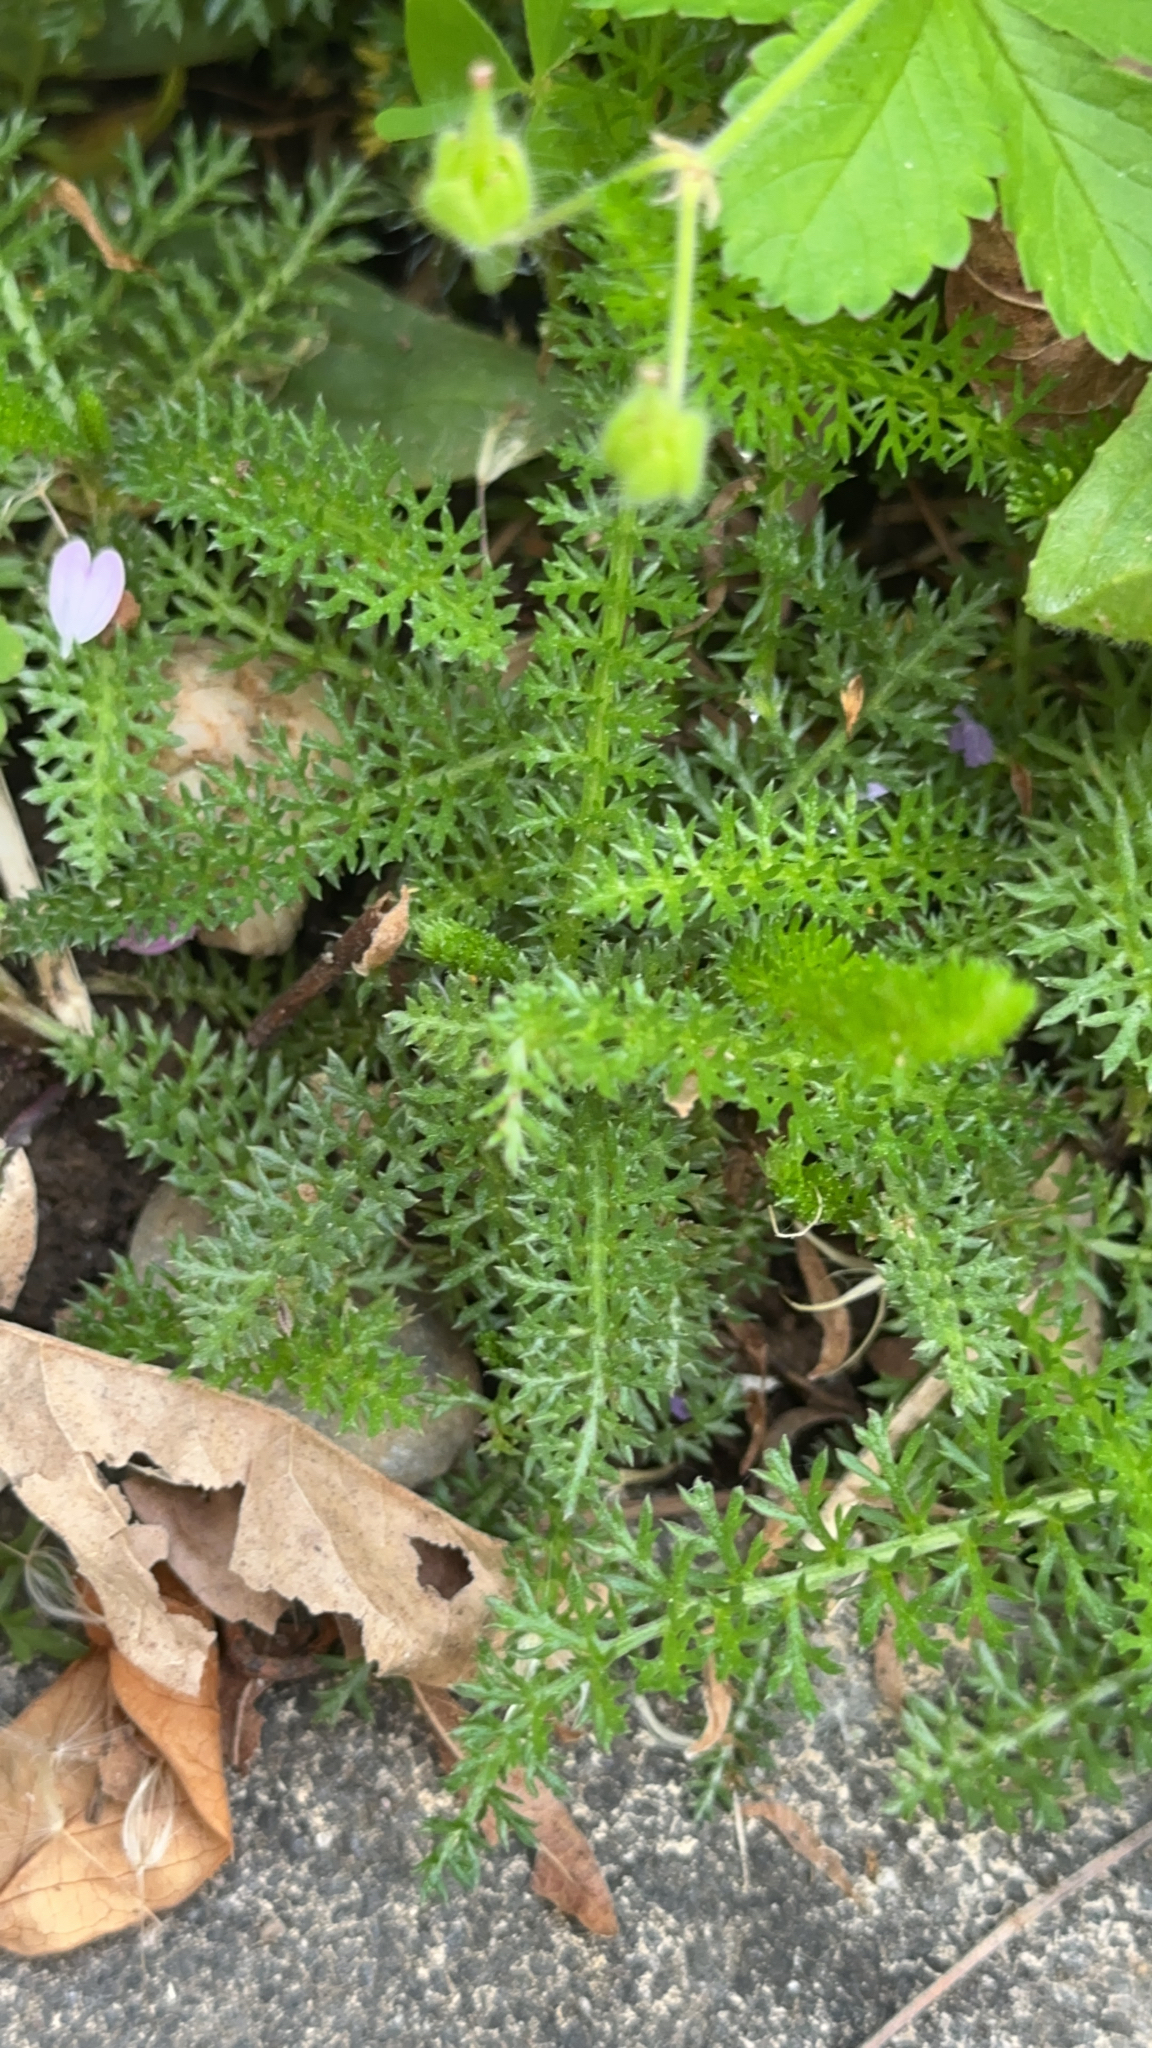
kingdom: Plantae
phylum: Tracheophyta
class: Magnoliopsida
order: Asterales
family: Asteraceae
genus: Achillea
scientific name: Achillea millefolium
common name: Yarrow
